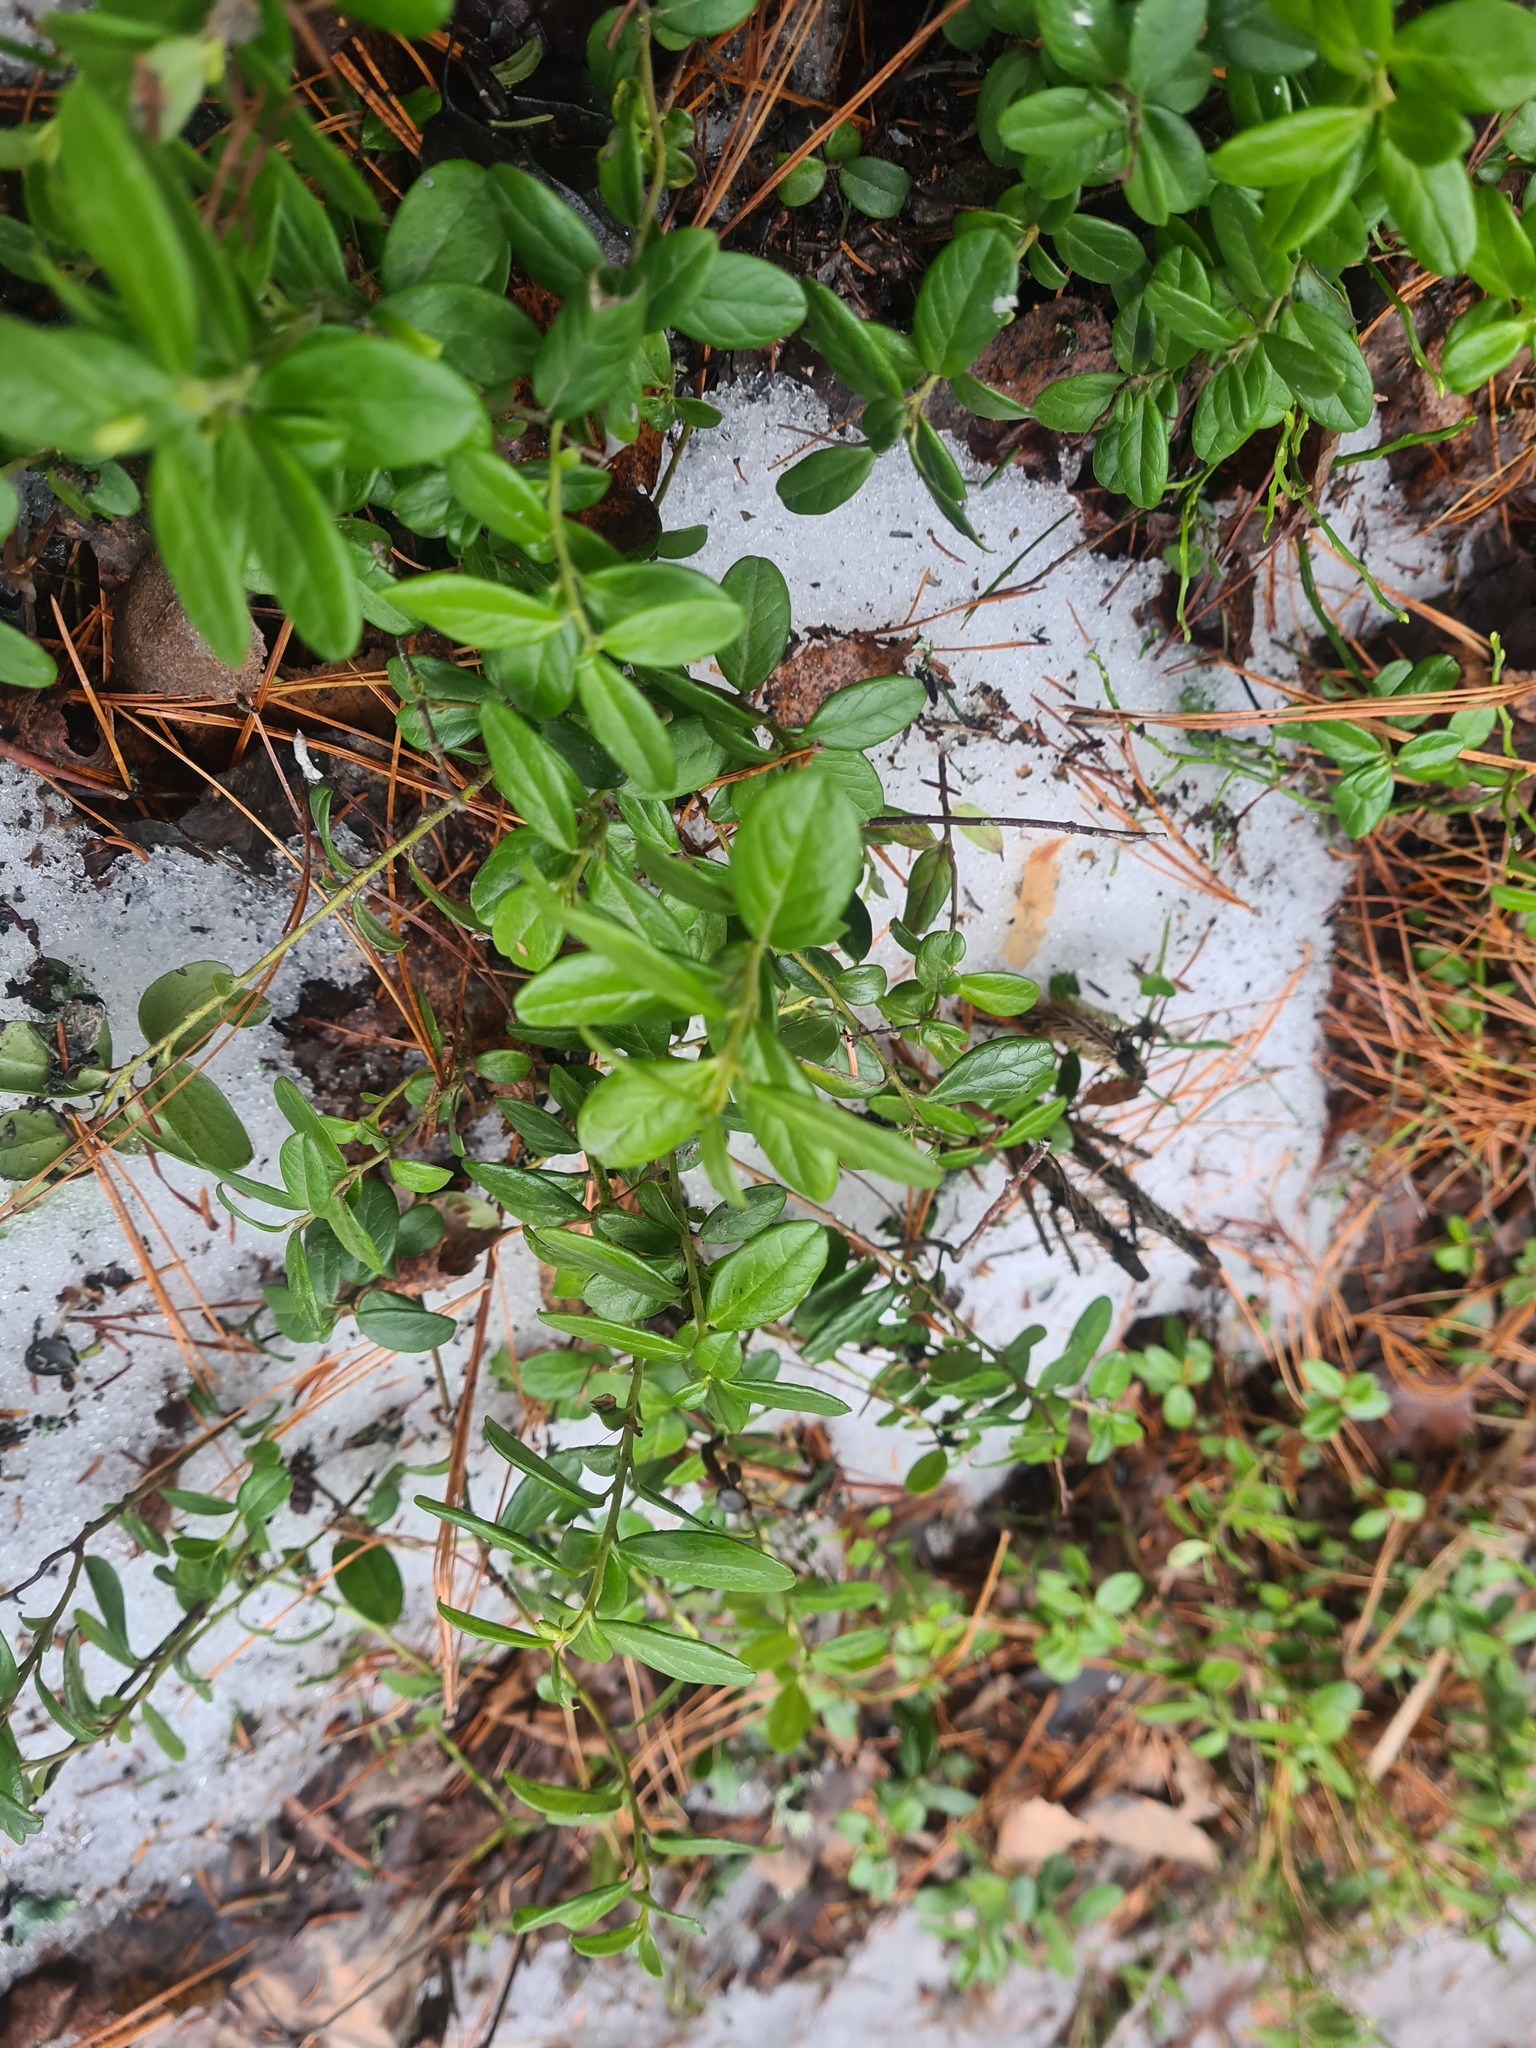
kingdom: Plantae
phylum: Tracheophyta
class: Magnoliopsida
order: Ericales
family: Ericaceae
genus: Vaccinium
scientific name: Vaccinium vitis-idaea
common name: Cowberry
